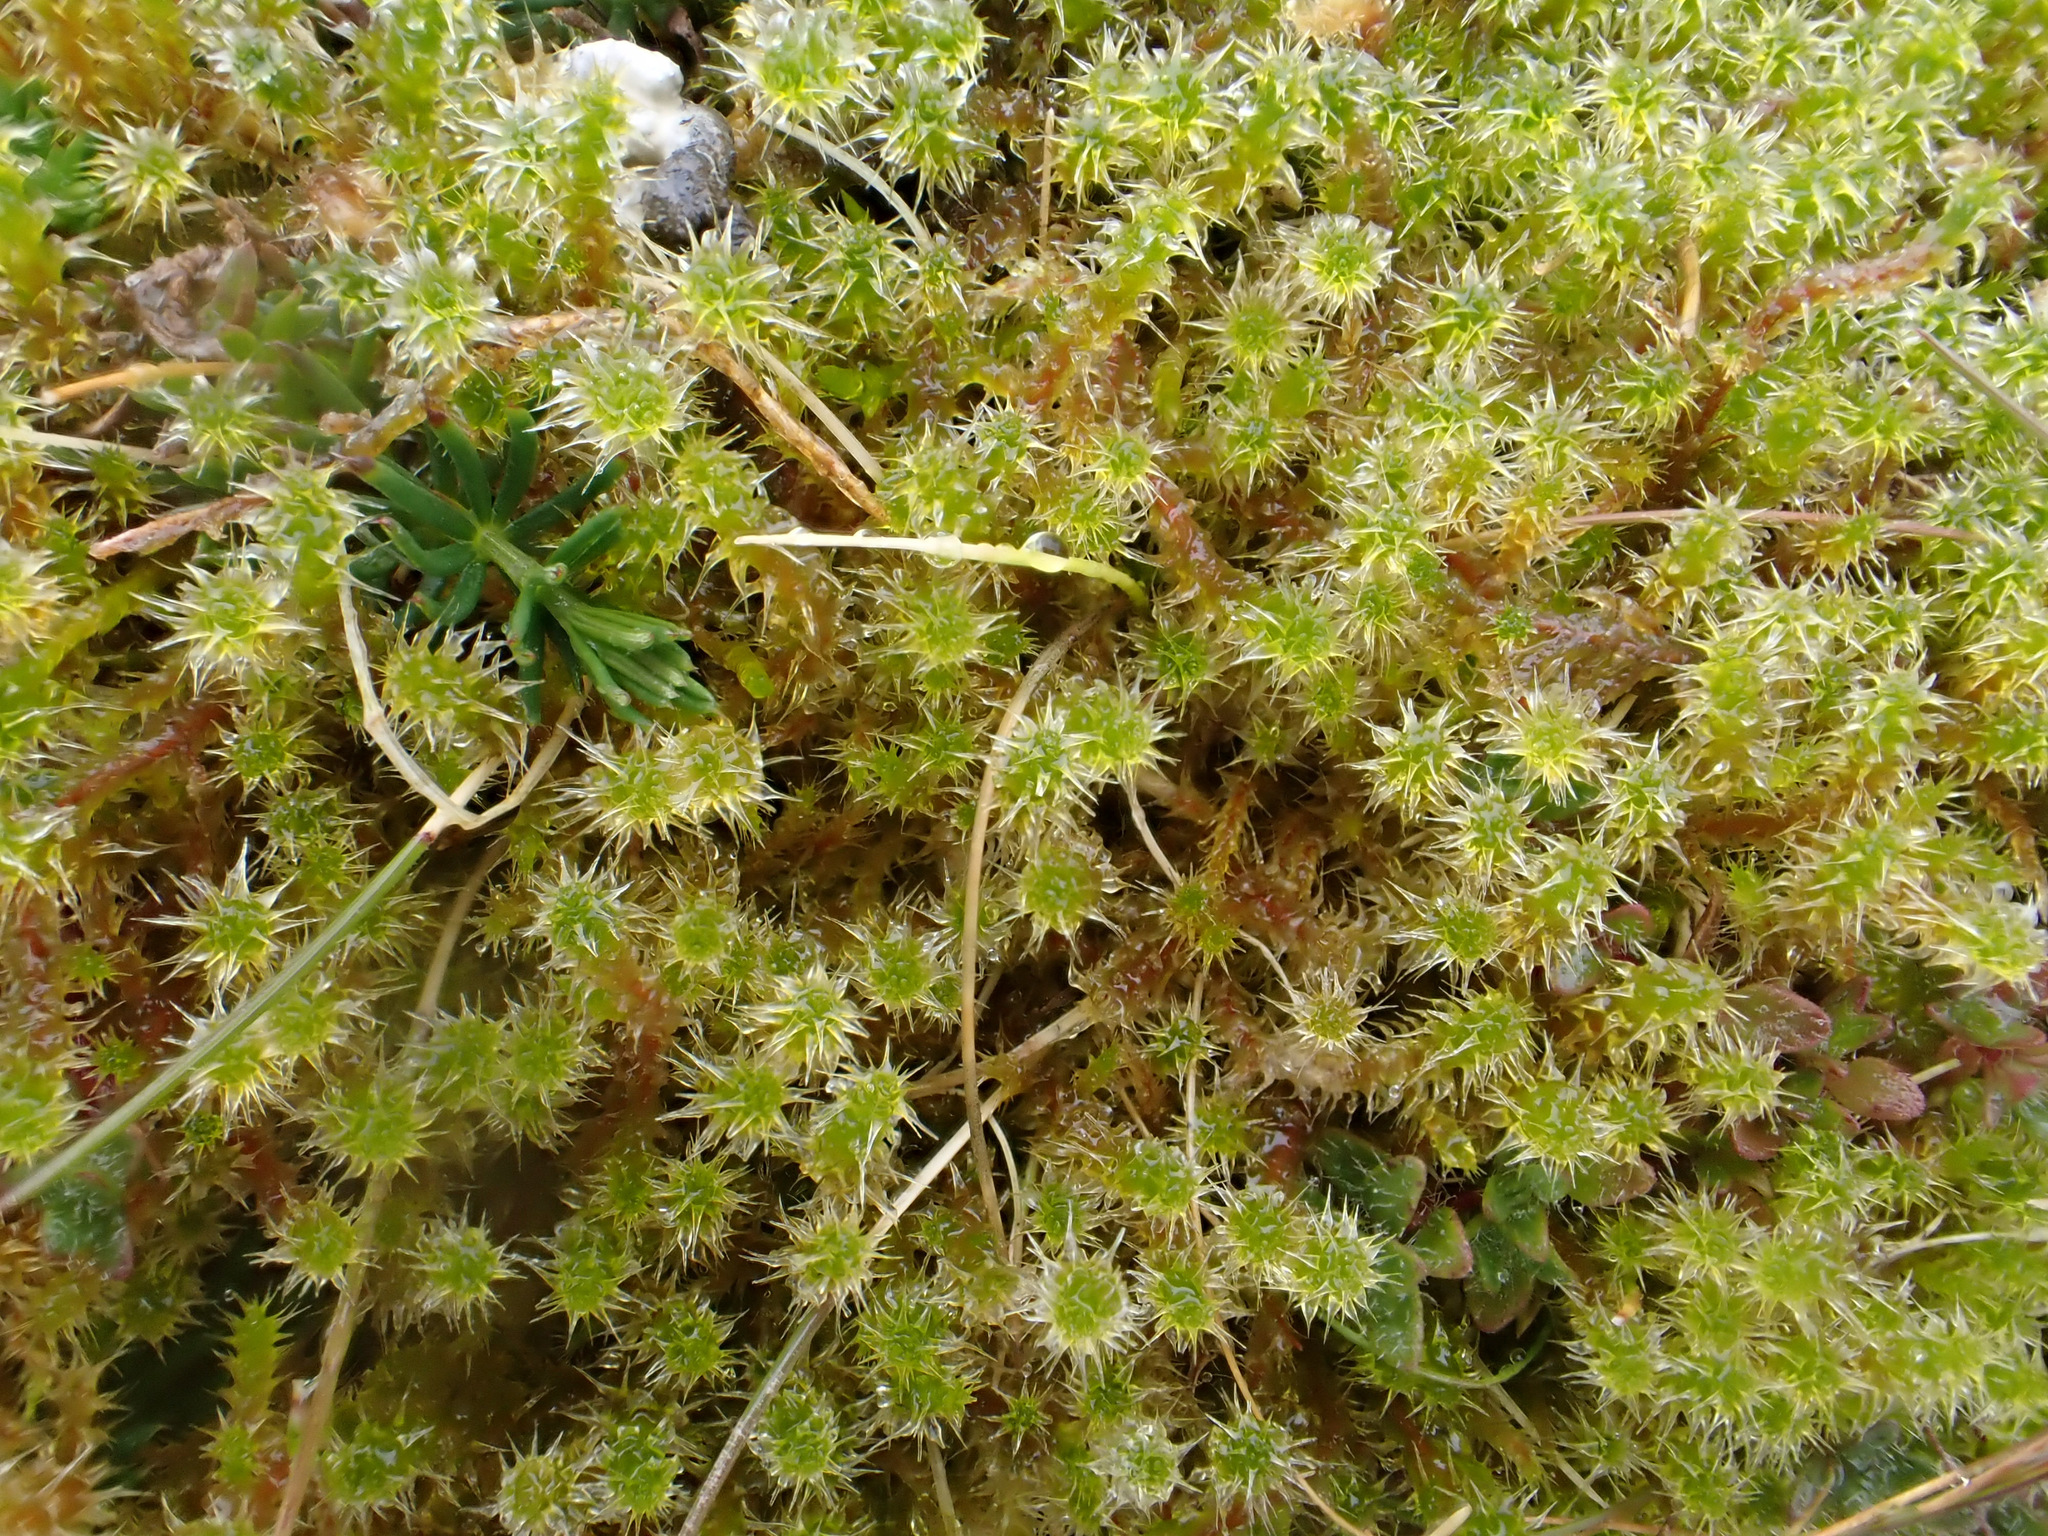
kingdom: Plantae
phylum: Bryophyta
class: Bryopsida
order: Hypnales
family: Hylocomiaceae
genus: Rhytidiadelphus
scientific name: Rhytidiadelphus squarrosus
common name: Springy turf-moss
